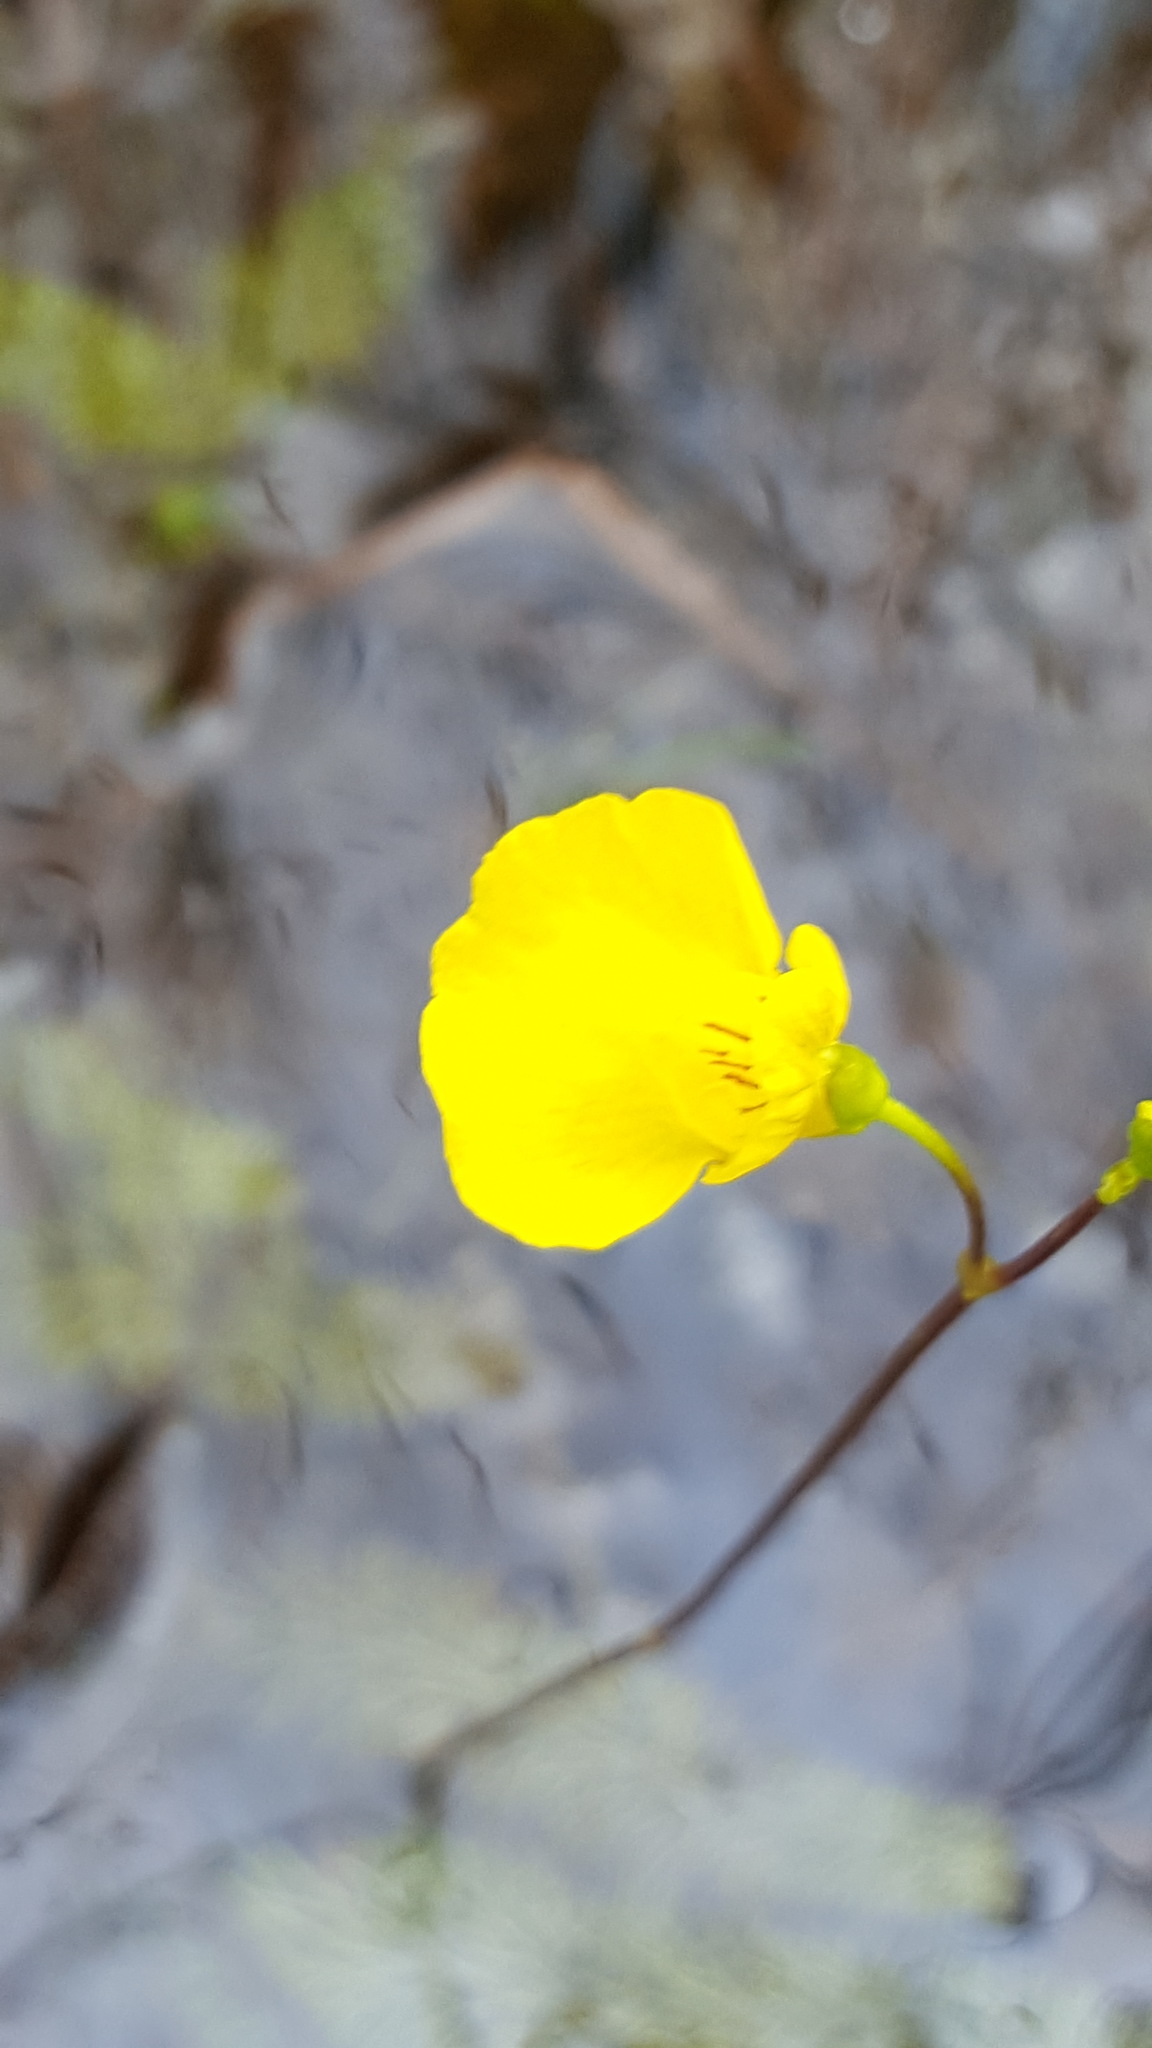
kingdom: Plantae
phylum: Tracheophyta
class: Magnoliopsida
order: Lamiales
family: Lentibulariaceae
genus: Utricularia
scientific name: Utricularia intermedia
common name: Intermediate bladderwort
